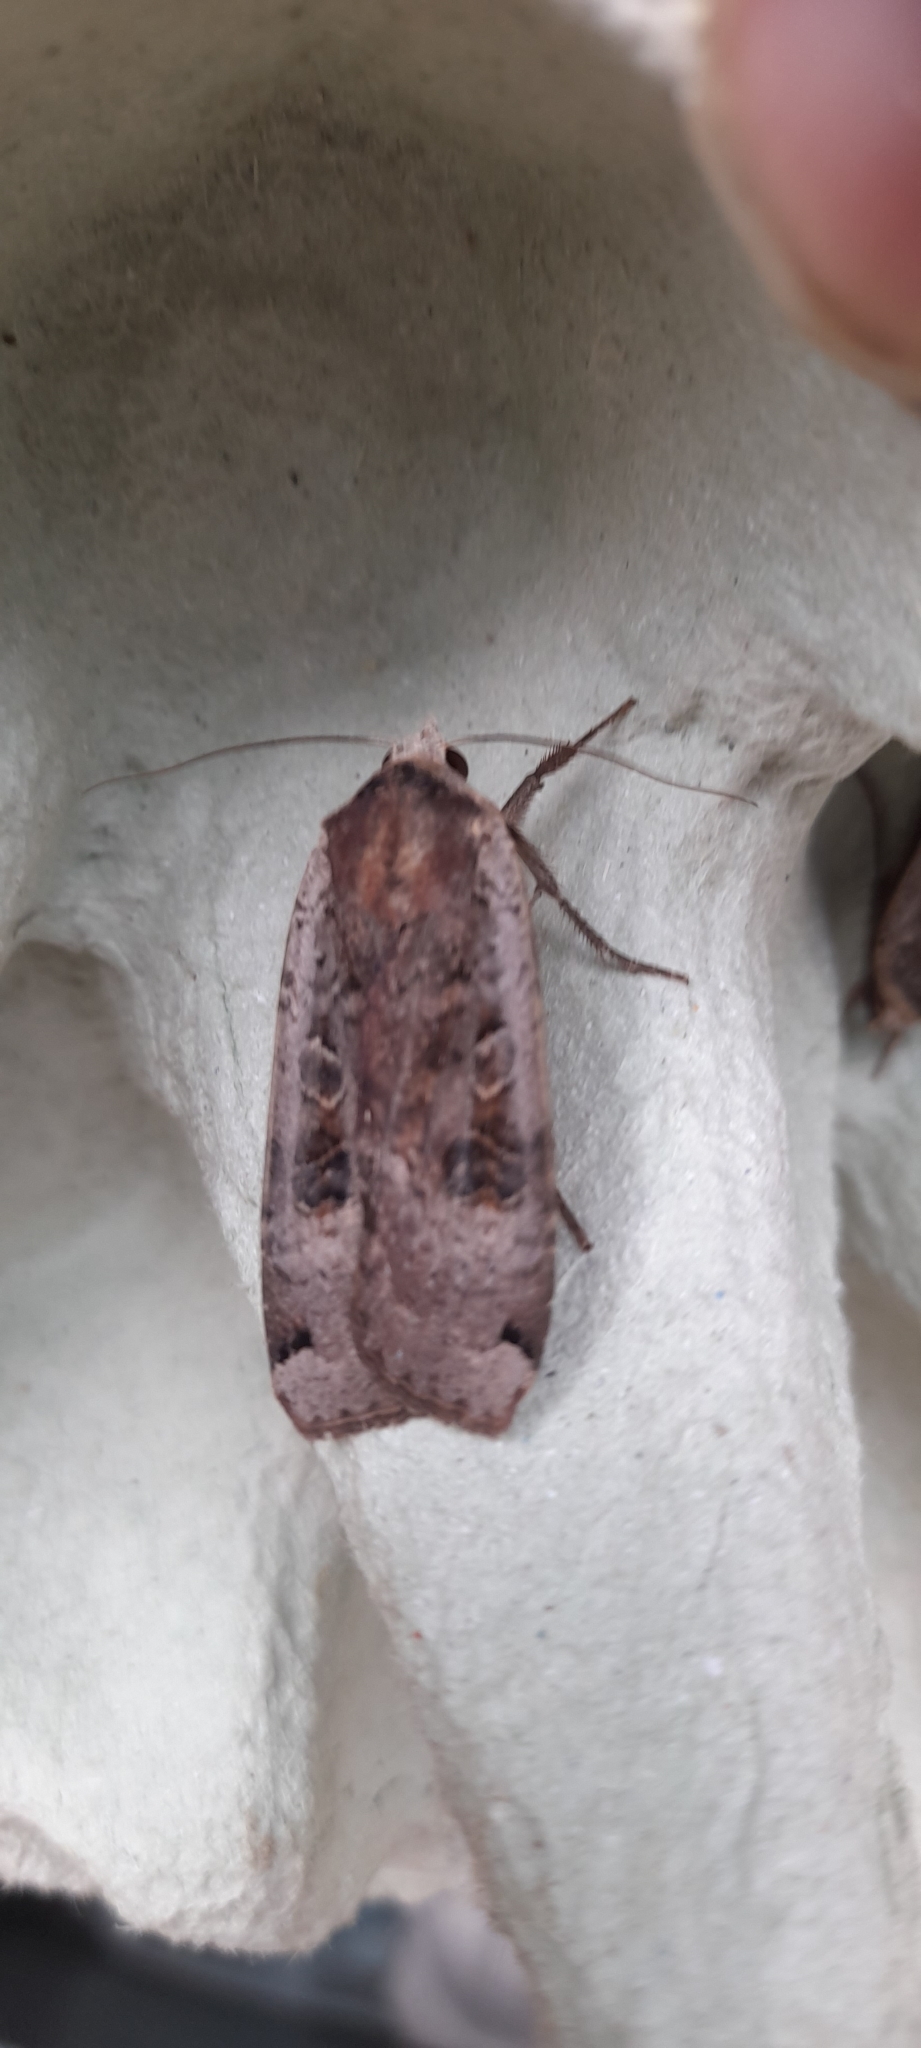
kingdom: Animalia
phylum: Arthropoda
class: Insecta
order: Lepidoptera
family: Noctuidae
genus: Noctua
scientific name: Noctua pronuba
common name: Large yellow underwing
